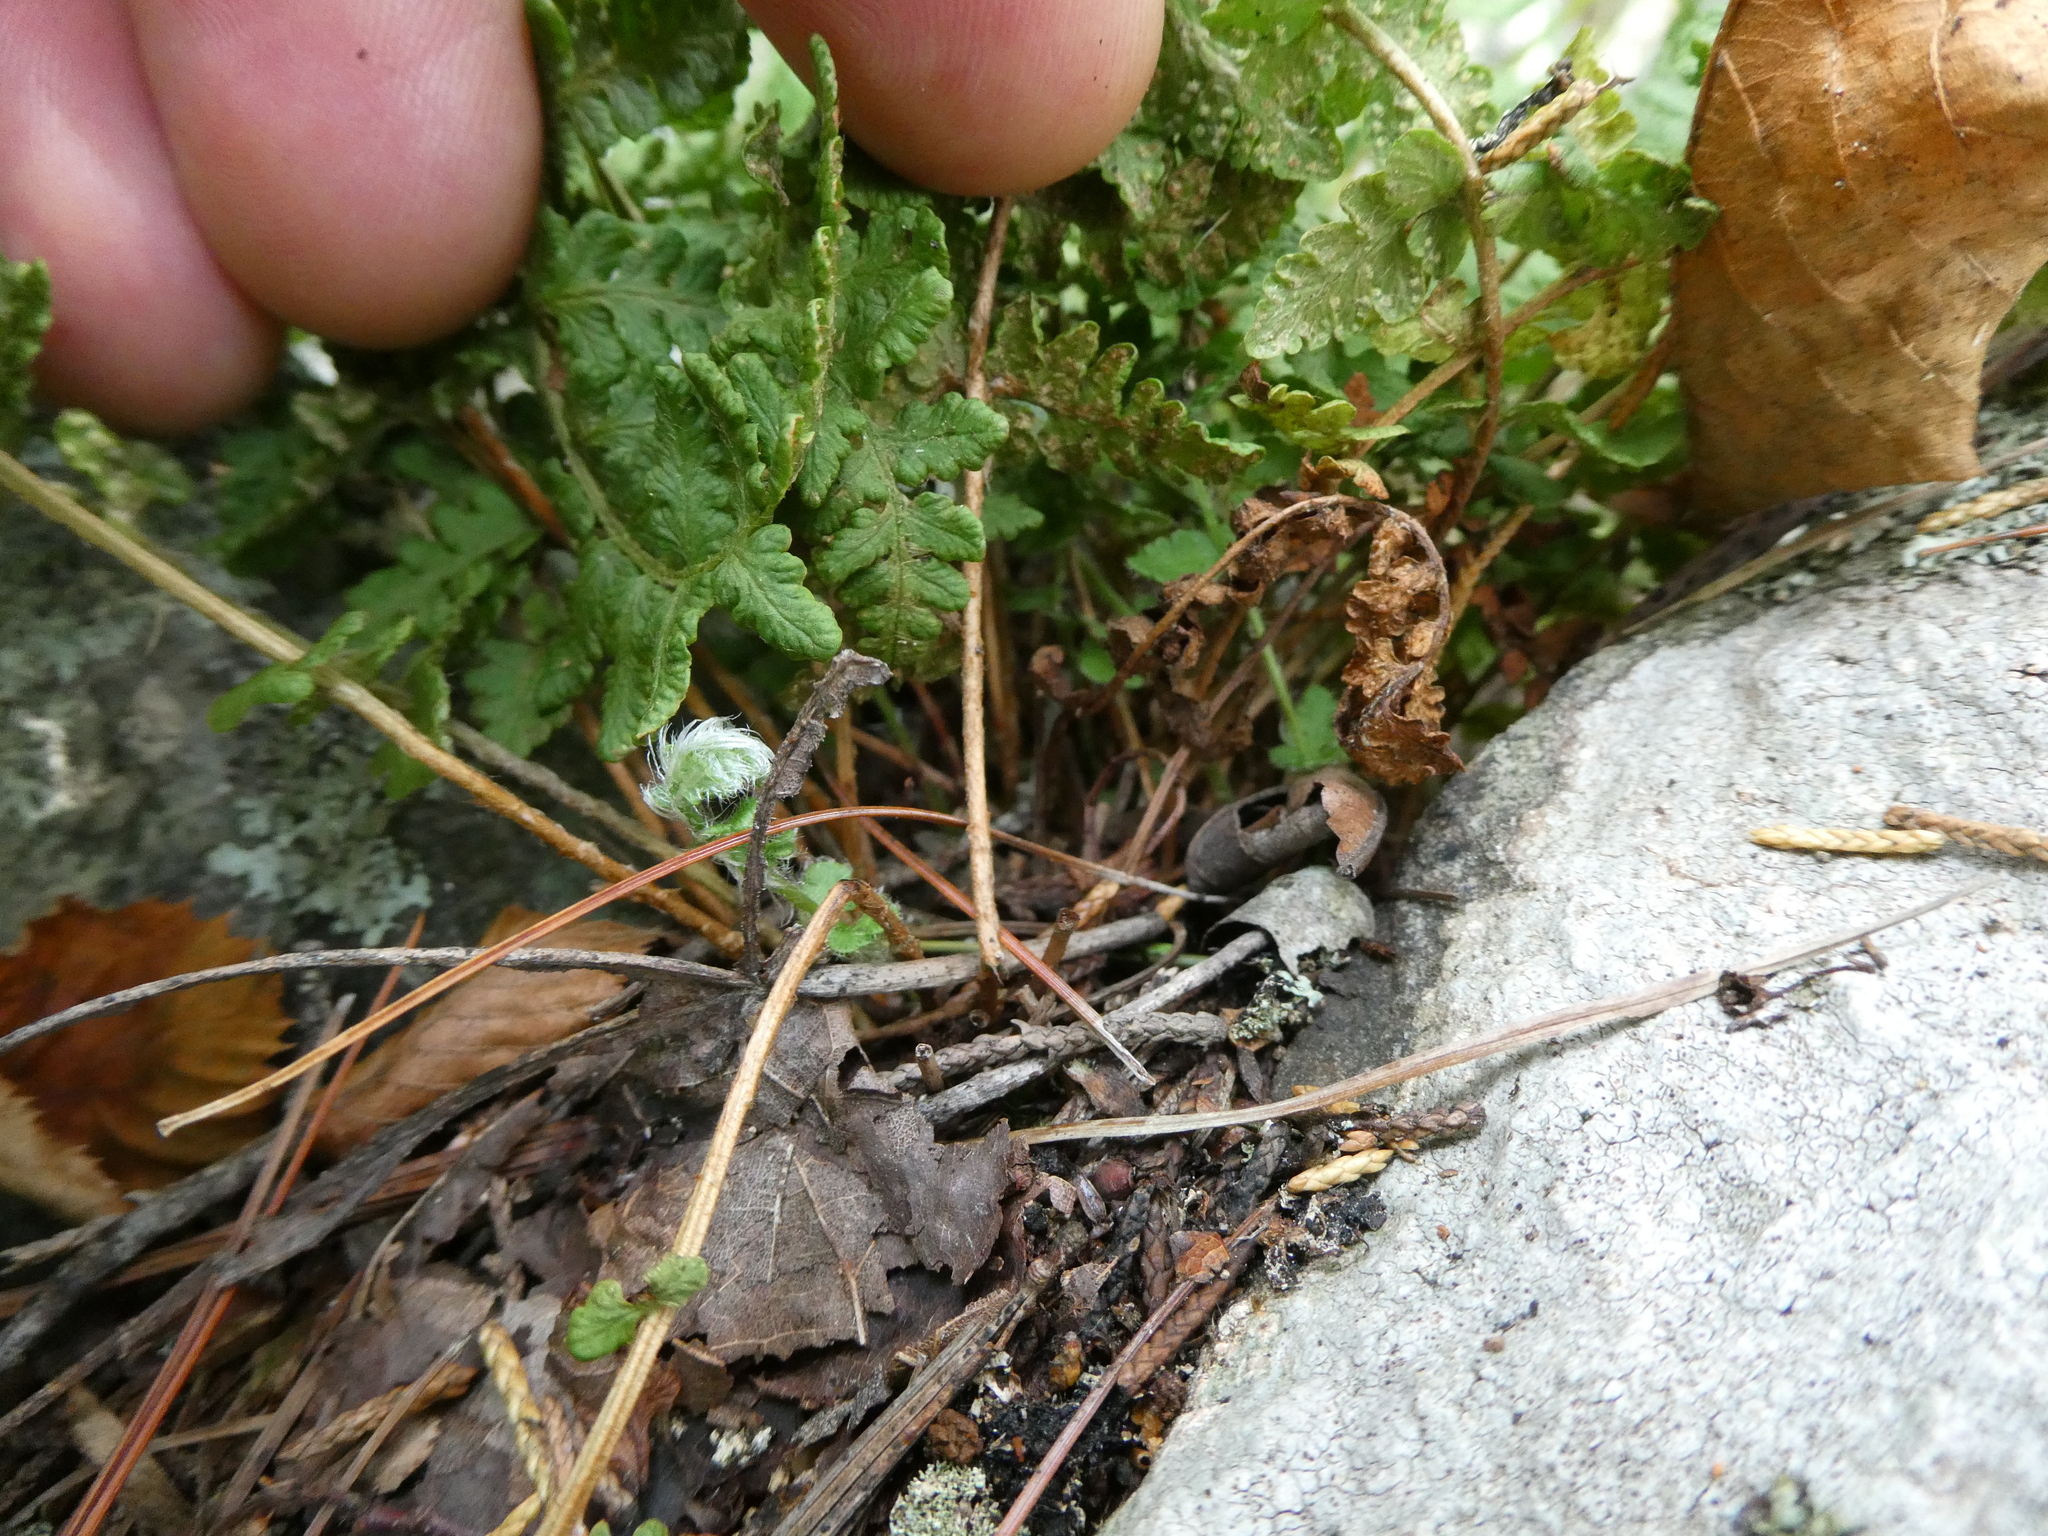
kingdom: Plantae
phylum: Tracheophyta
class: Polypodiopsida
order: Polypodiales
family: Woodsiaceae
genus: Woodsia
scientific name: Woodsia ilvensis
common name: Fragrant woodsia
